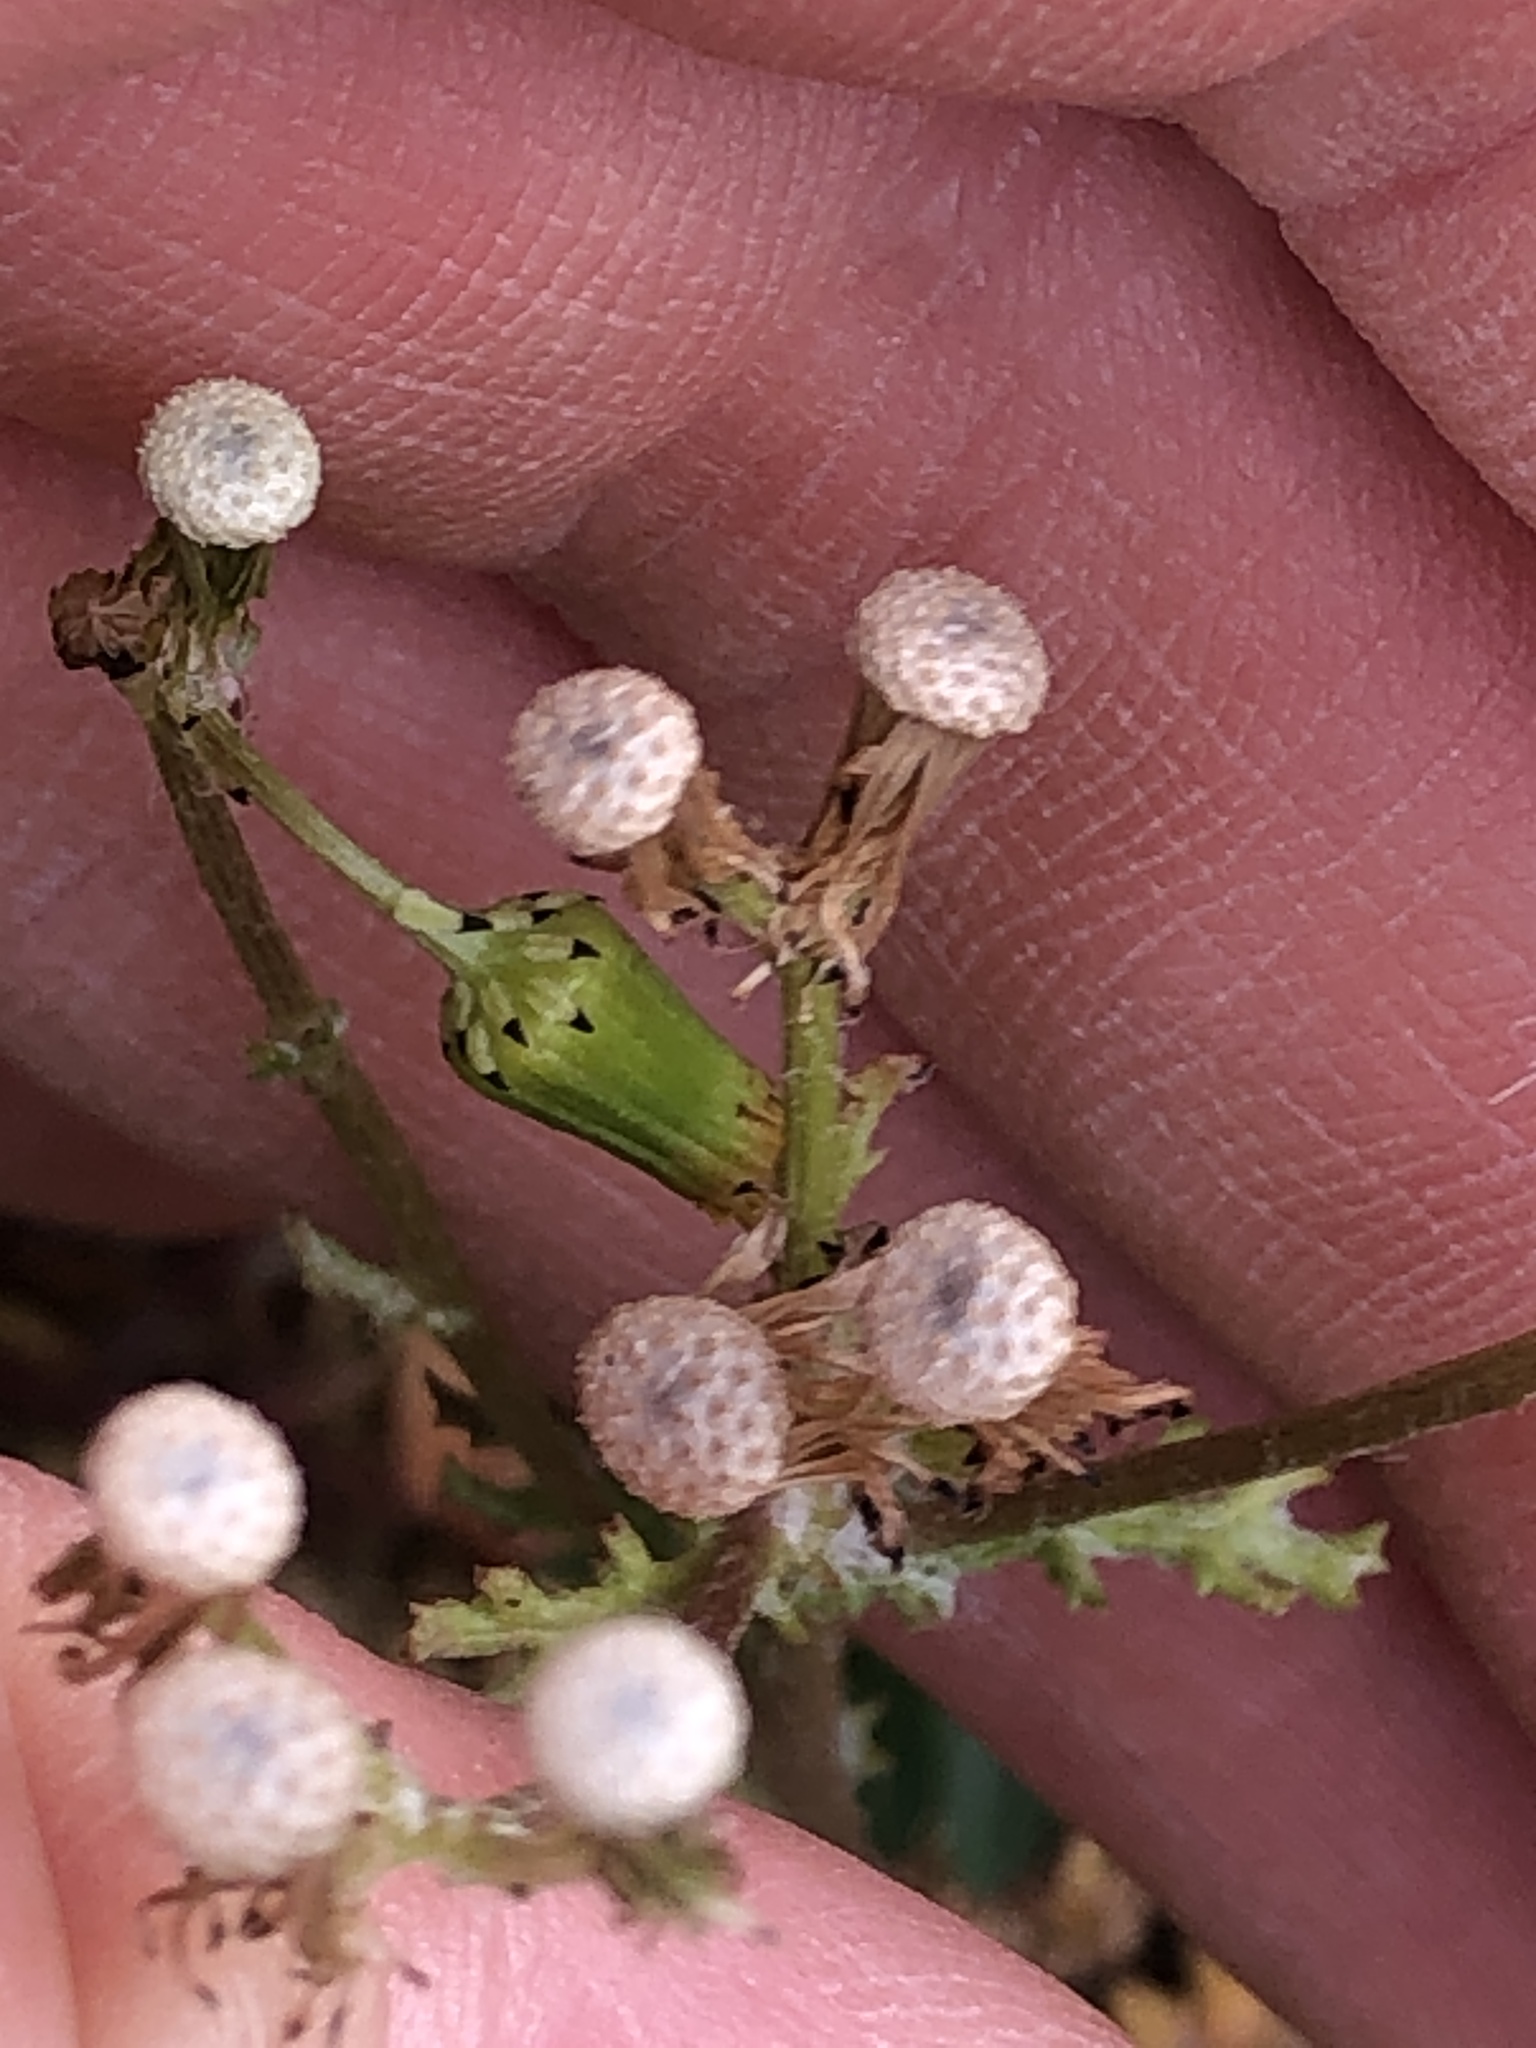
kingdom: Plantae
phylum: Tracheophyta
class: Magnoliopsida
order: Asterales
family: Asteraceae
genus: Senecio
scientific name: Senecio vulgaris
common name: Old-man-in-the-spring
